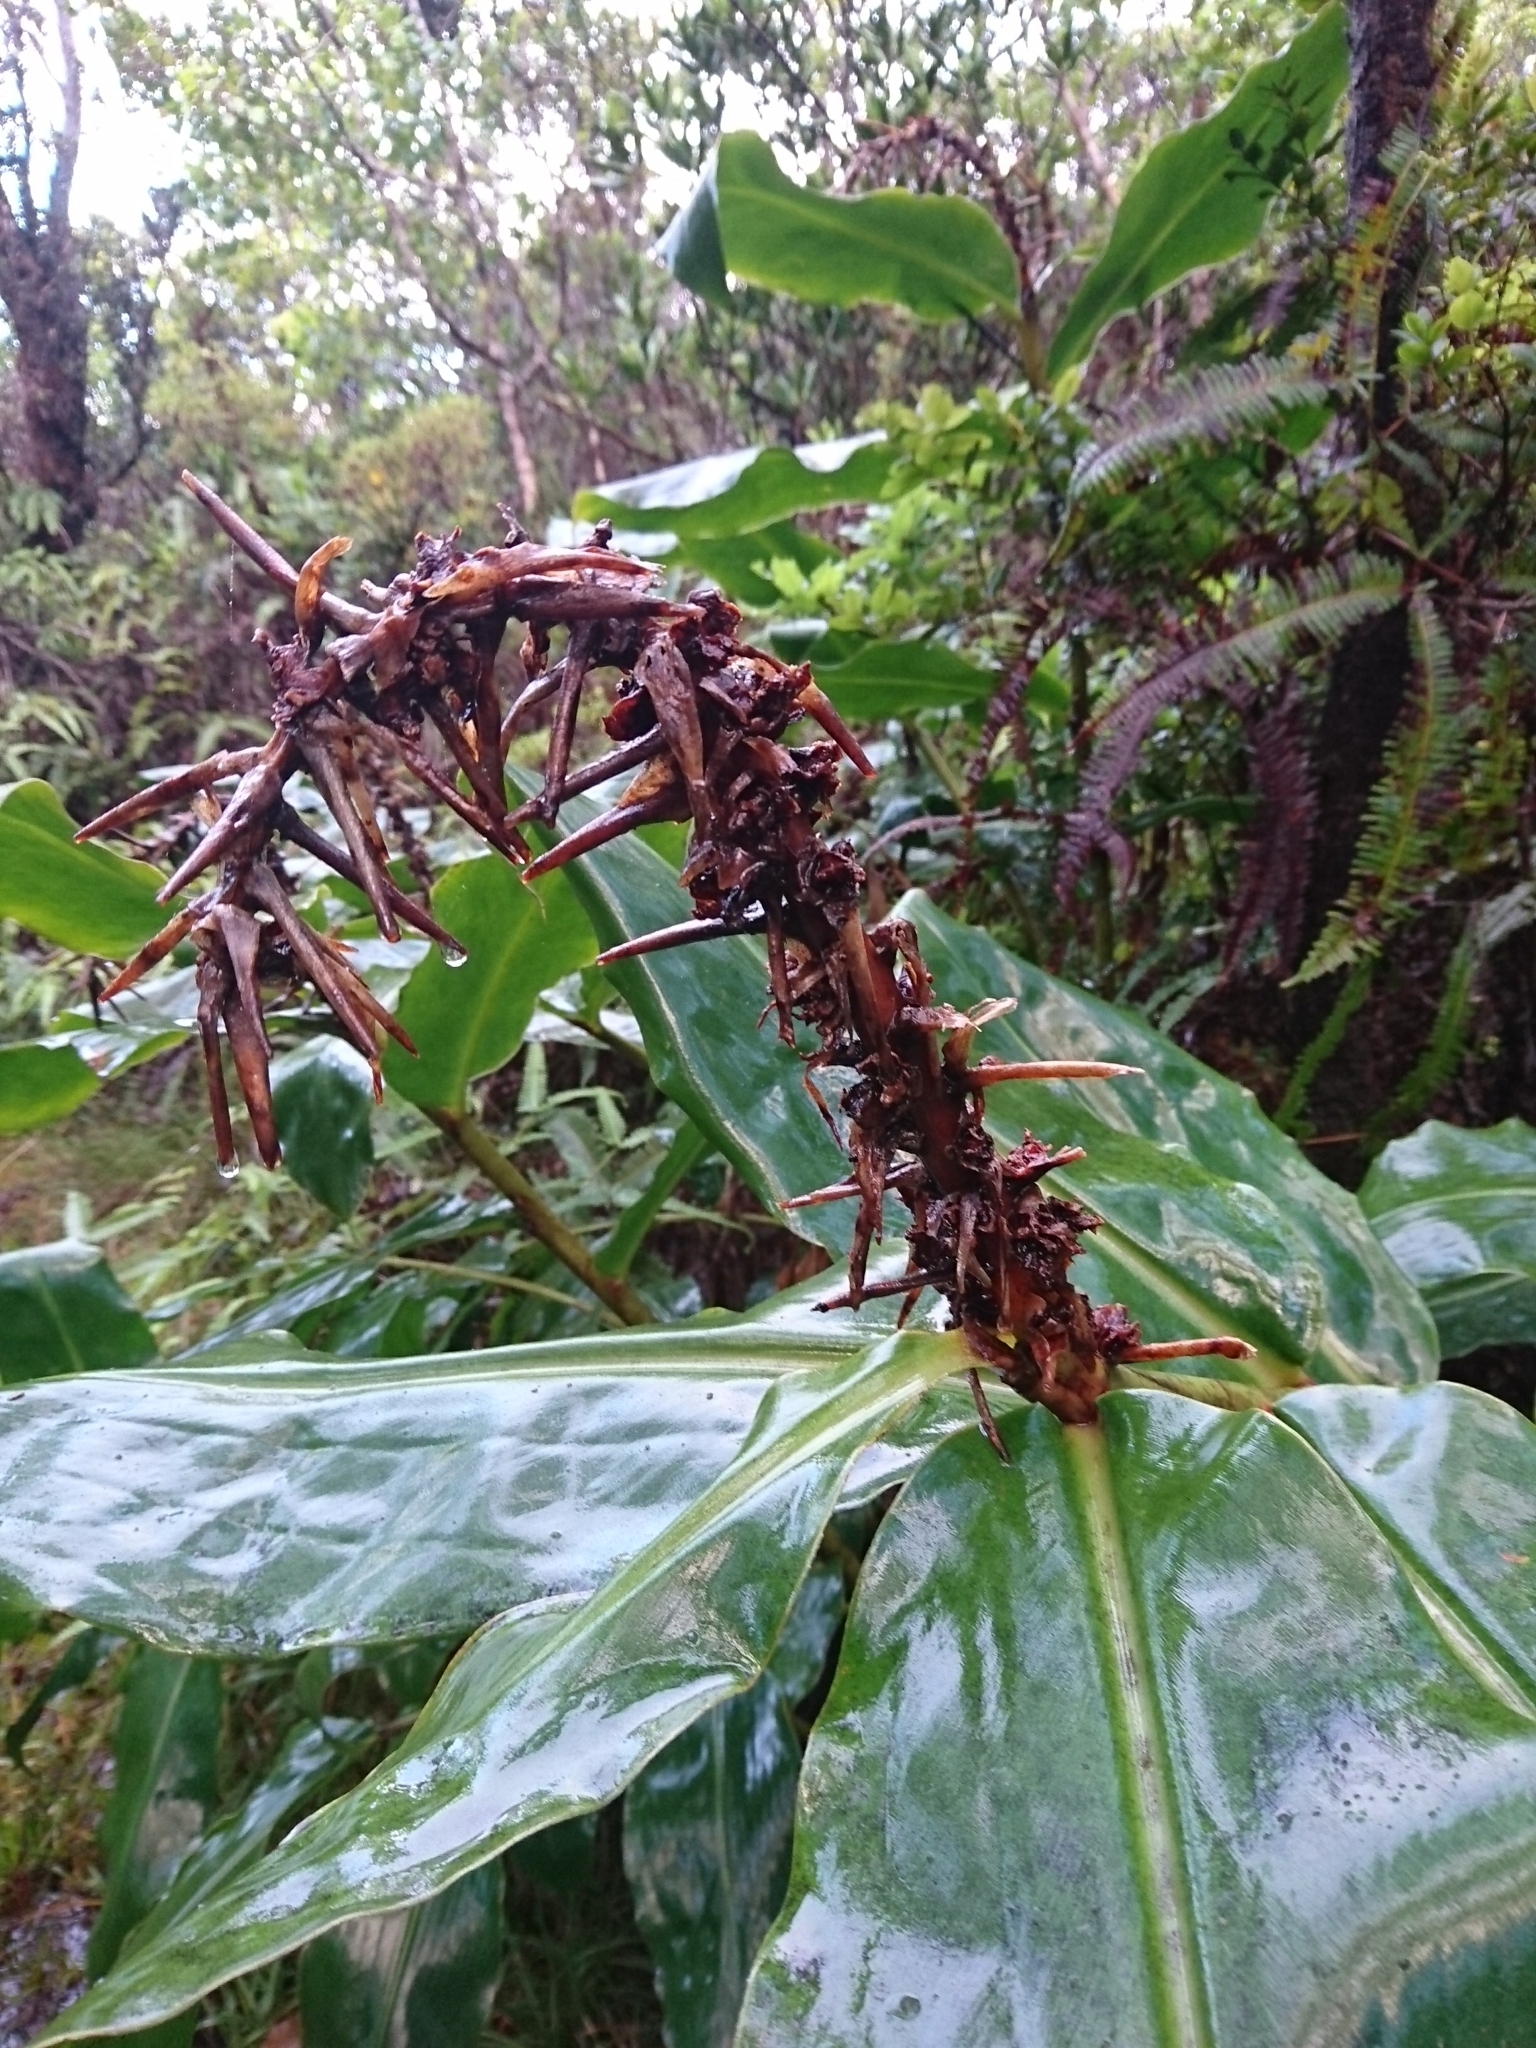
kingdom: Plantae
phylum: Tracheophyta
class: Liliopsida
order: Zingiberales
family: Zingiberaceae
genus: Hedychium
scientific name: Hedychium gardnerianum
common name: Himalayan ginger
